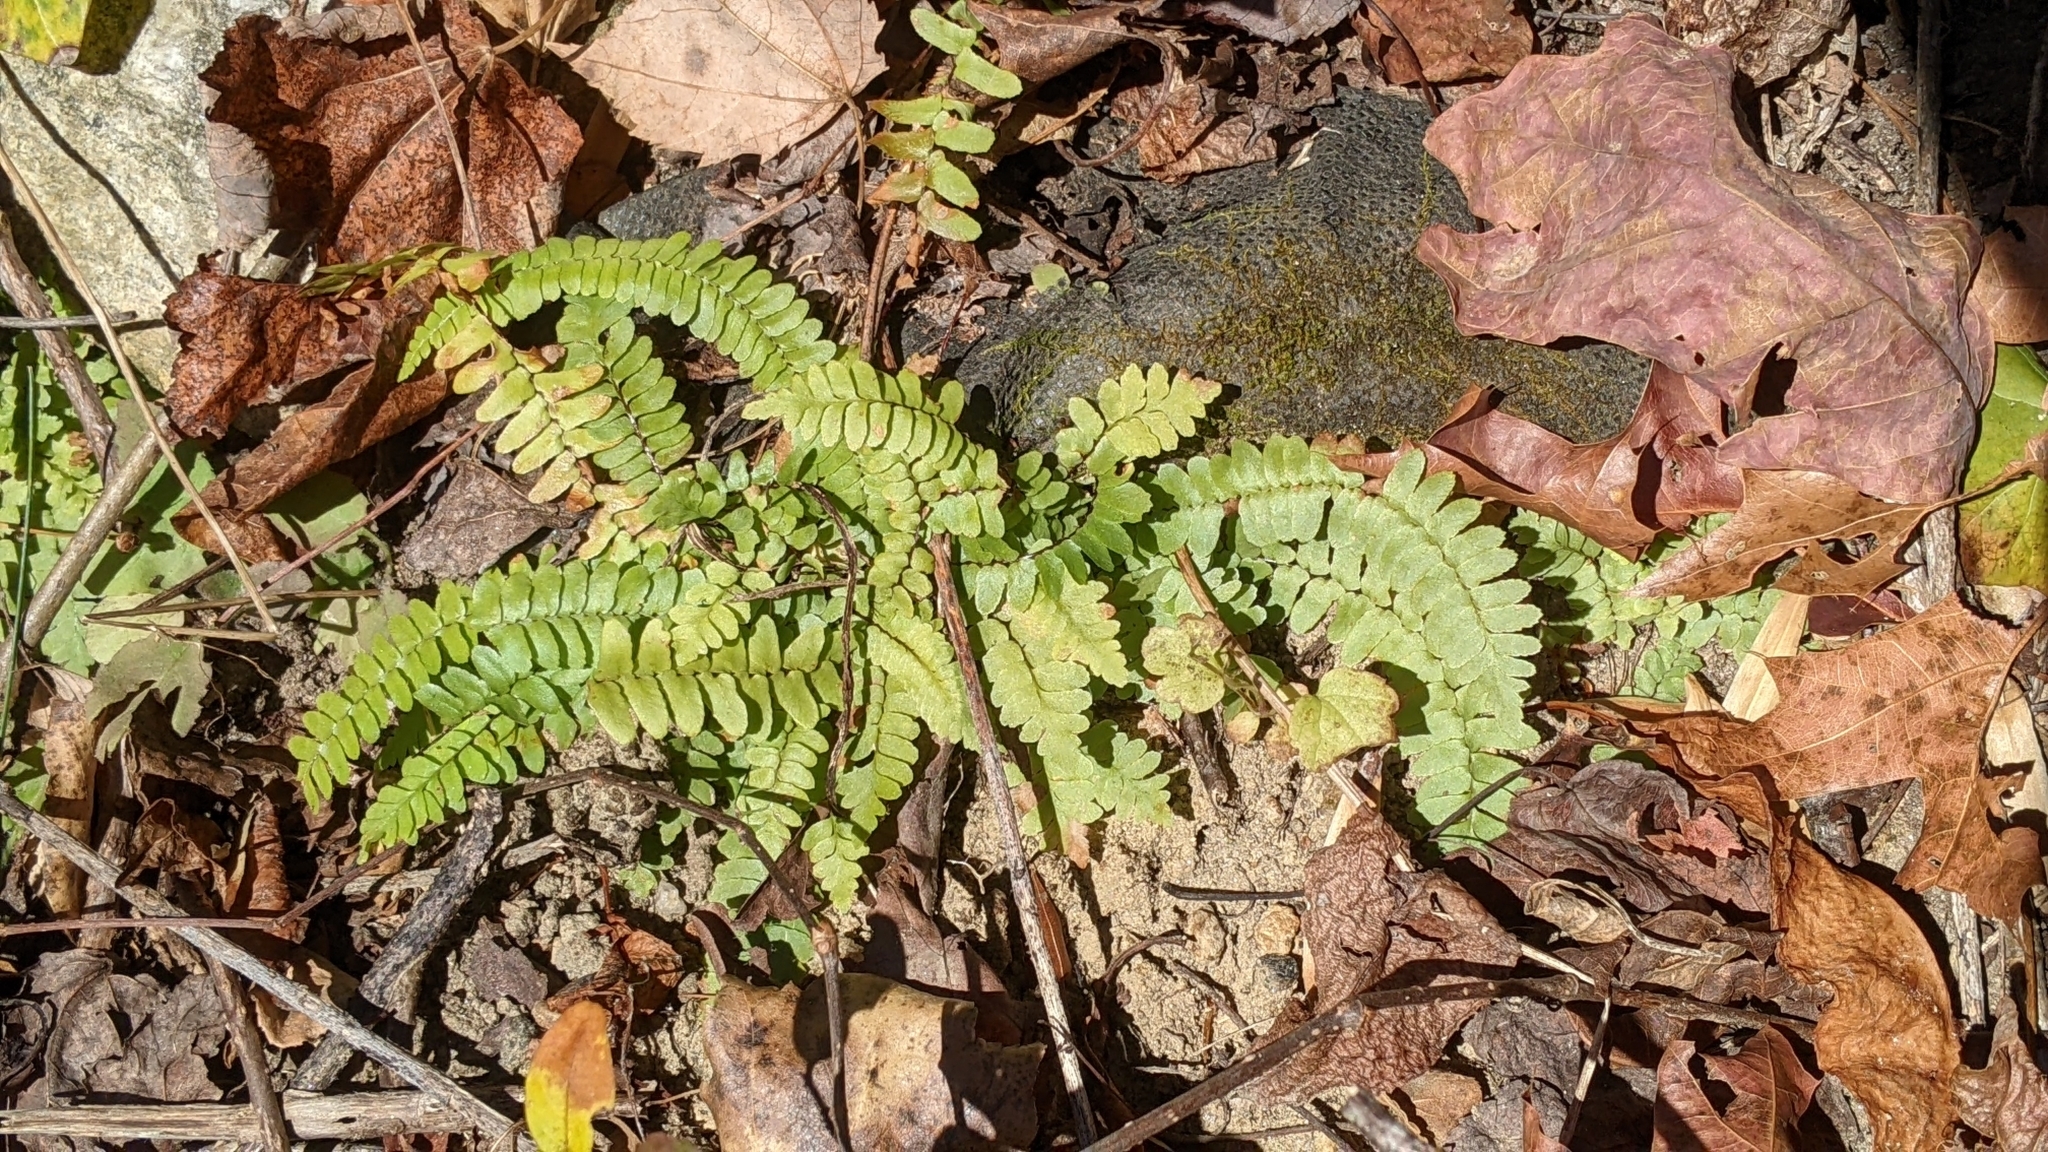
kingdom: Plantae
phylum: Tracheophyta
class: Polypodiopsida
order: Polypodiales
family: Aspleniaceae
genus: Asplenium
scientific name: Asplenium platyneuron
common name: Ebony spleenwort
